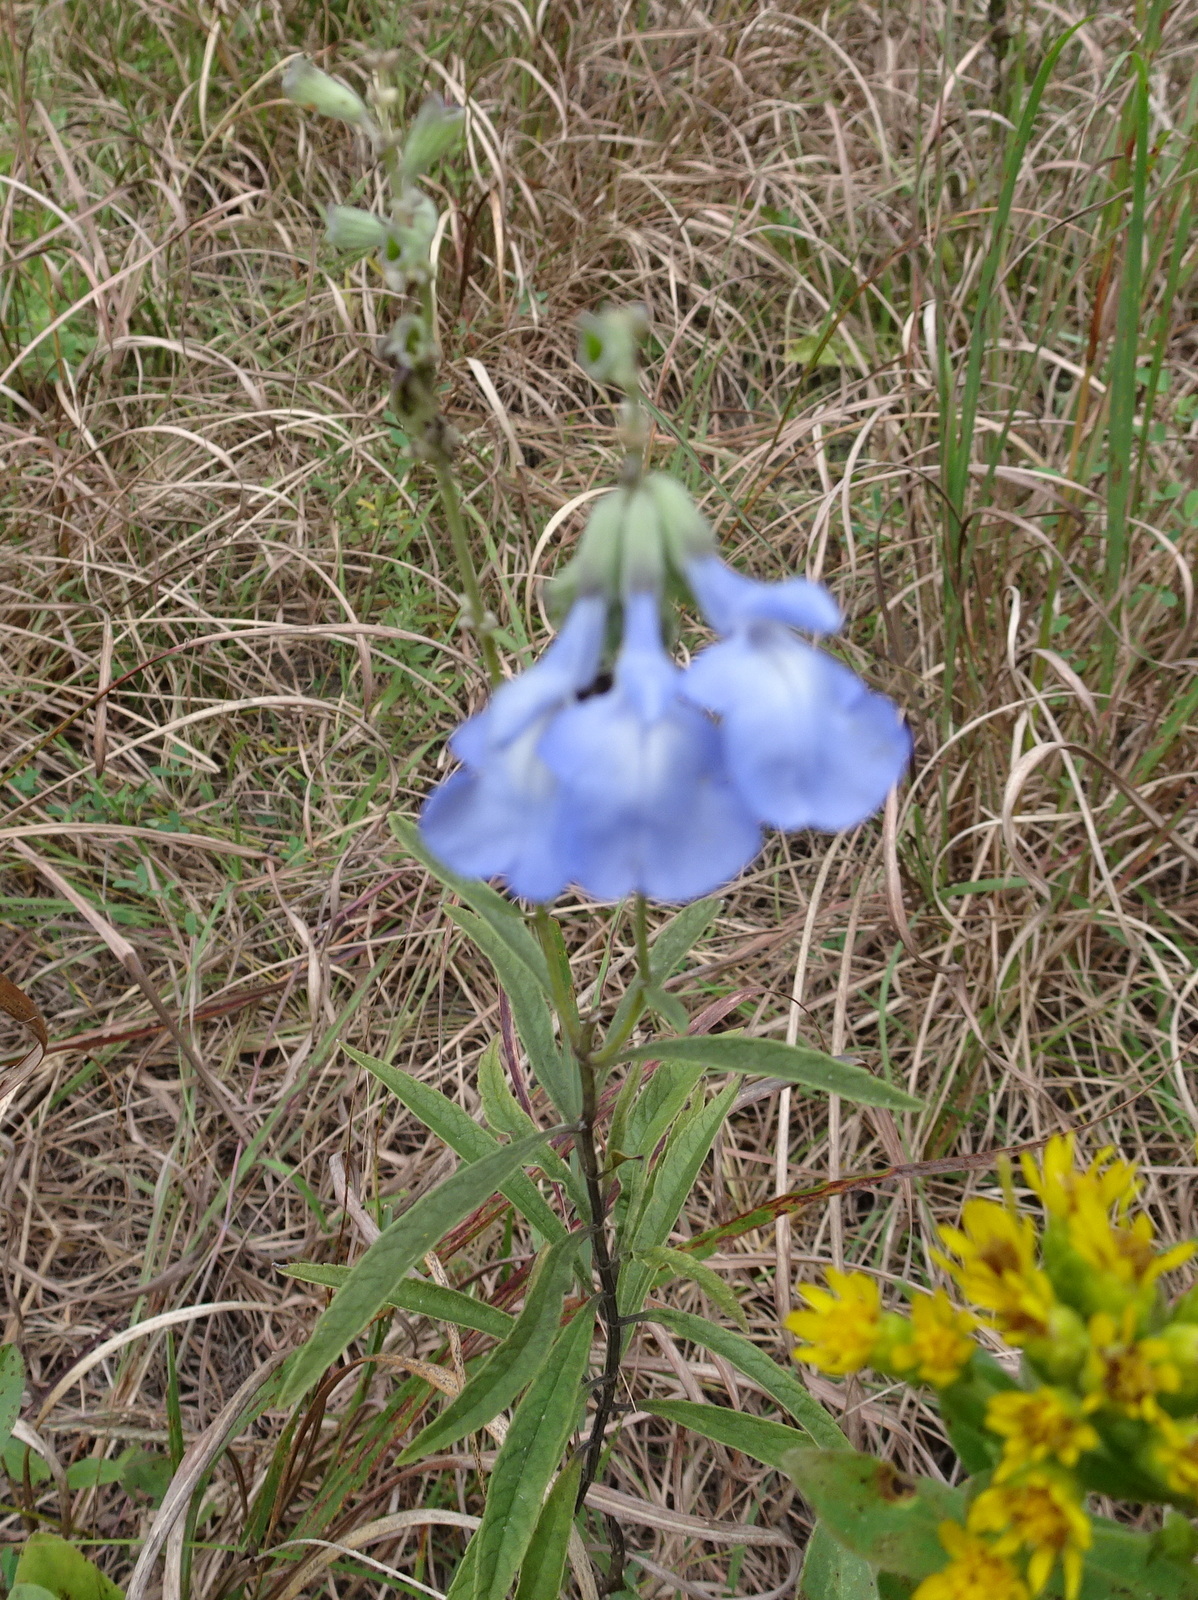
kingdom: Plantae
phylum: Tracheophyta
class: Magnoliopsida
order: Lamiales
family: Lamiaceae
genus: Salvia
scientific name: Salvia azurea
